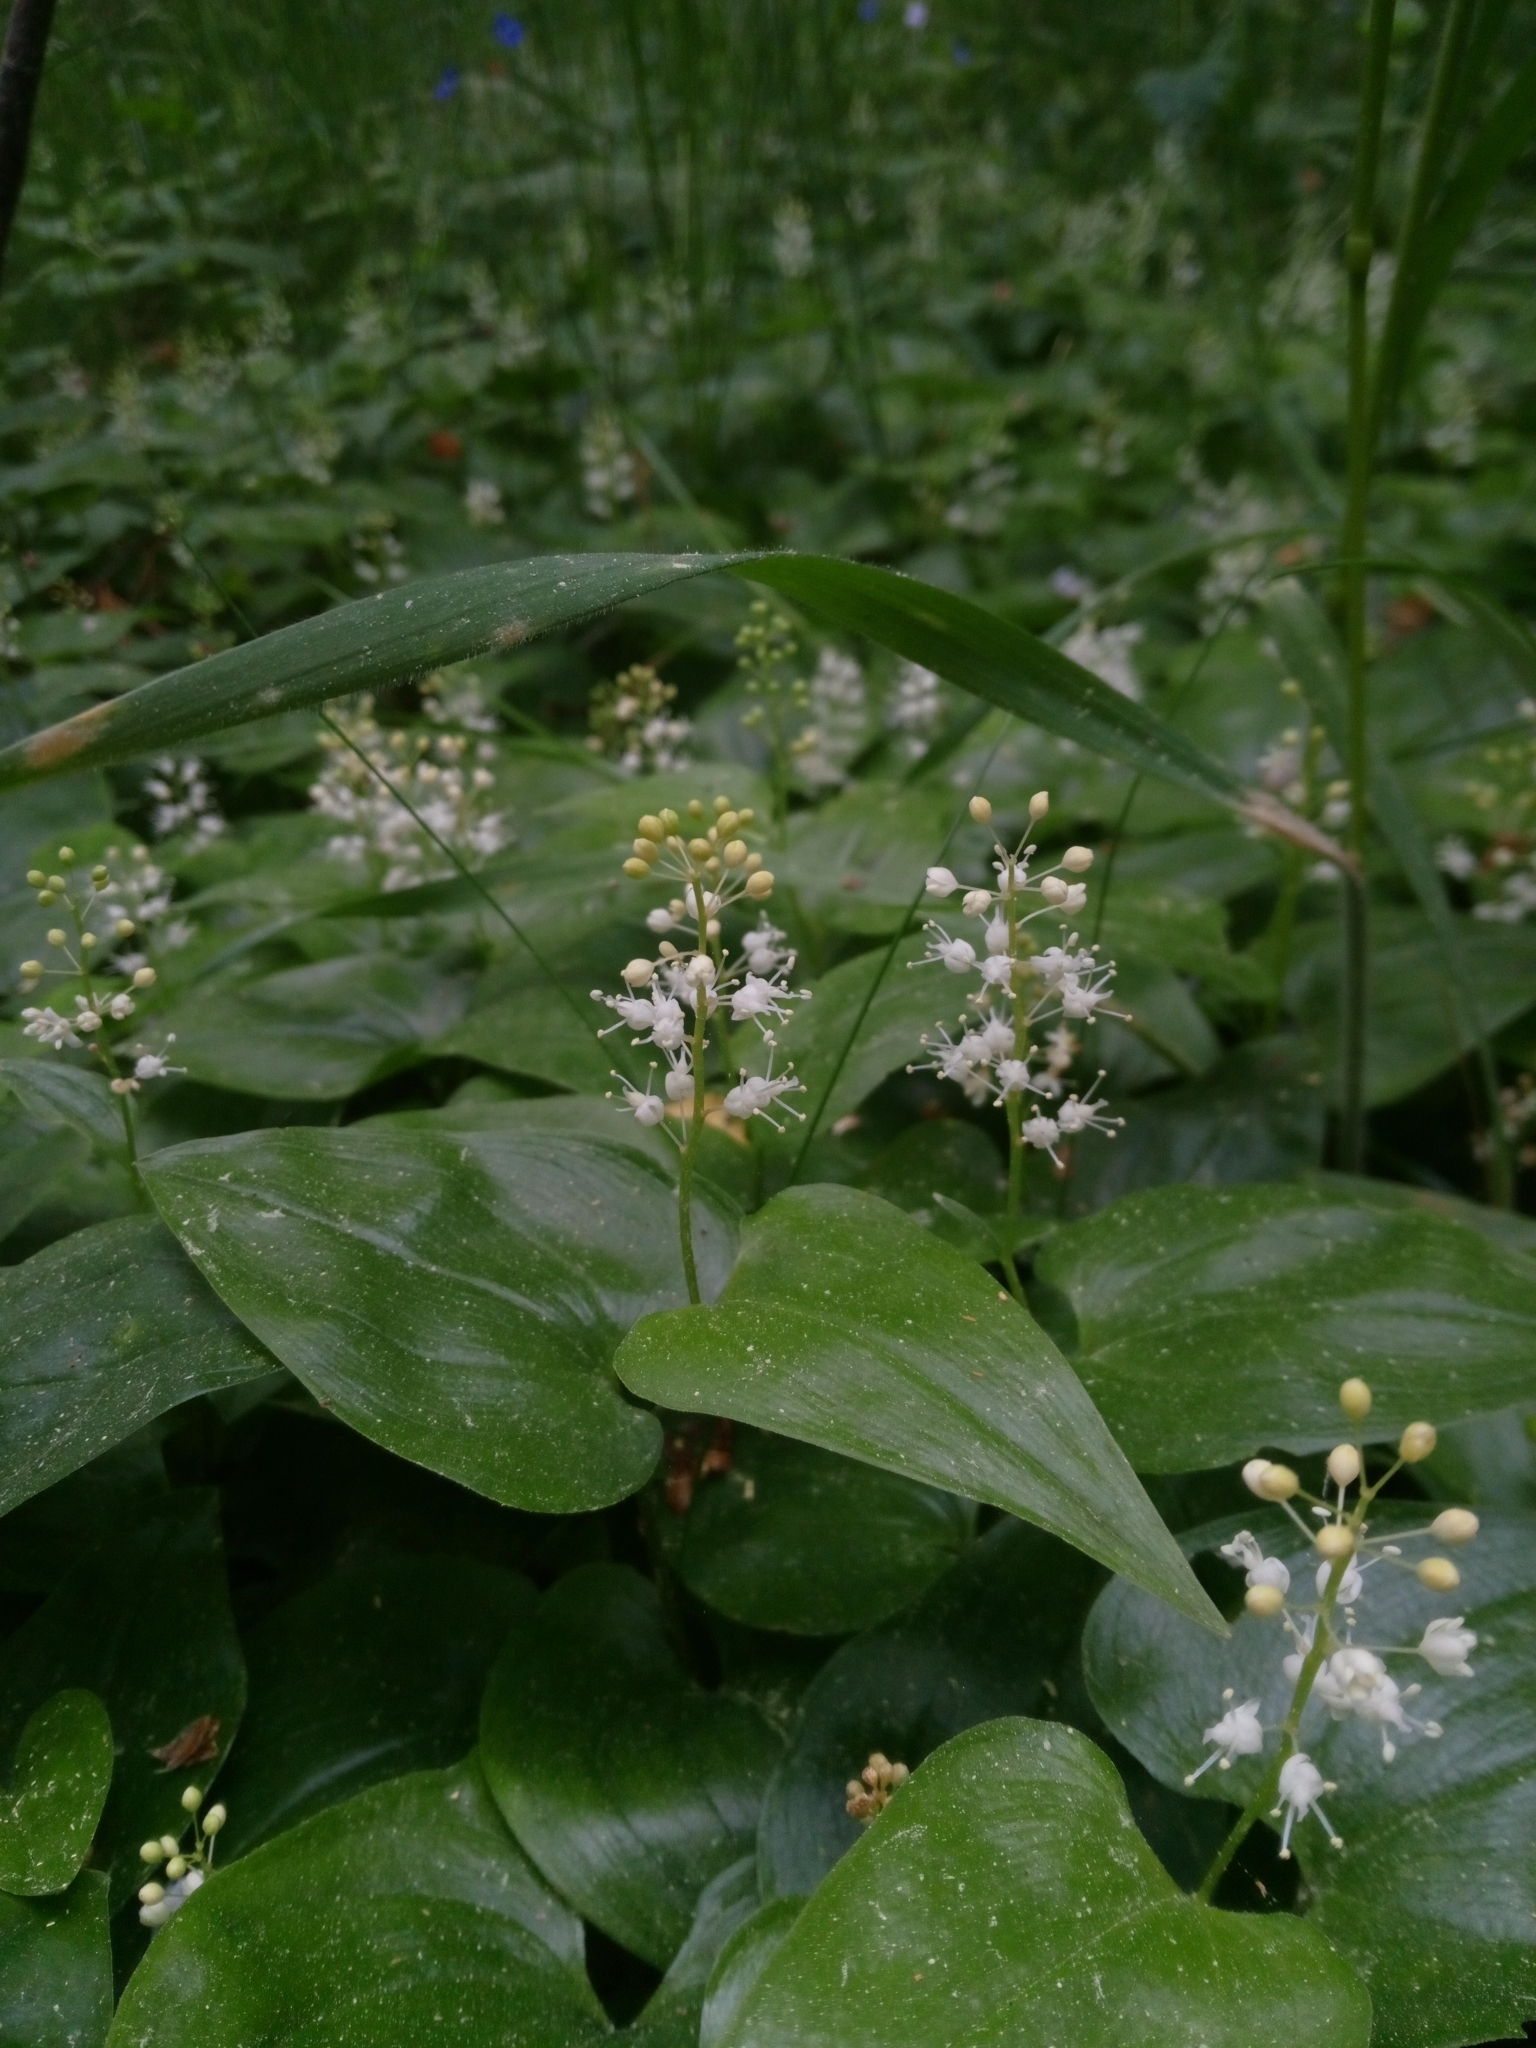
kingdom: Plantae
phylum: Tracheophyta
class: Liliopsida
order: Asparagales
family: Asparagaceae
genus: Maianthemum
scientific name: Maianthemum bifolium
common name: May lily
